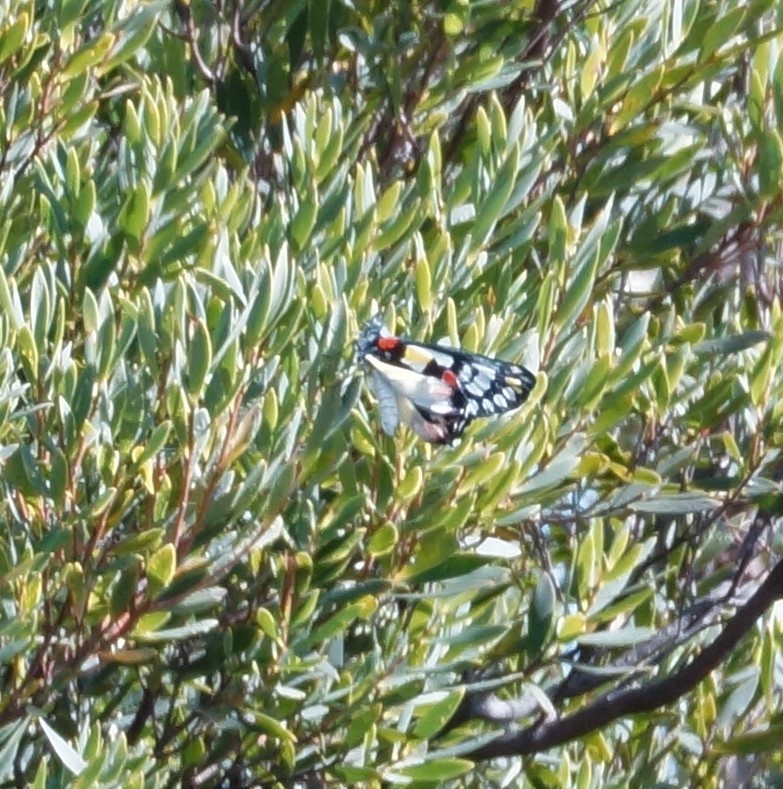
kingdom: Animalia
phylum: Arthropoda
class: Insecta
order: Lepidoptera
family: Pieridae
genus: Delias
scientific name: Delias aganippe
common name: Red-spotted jezebel
